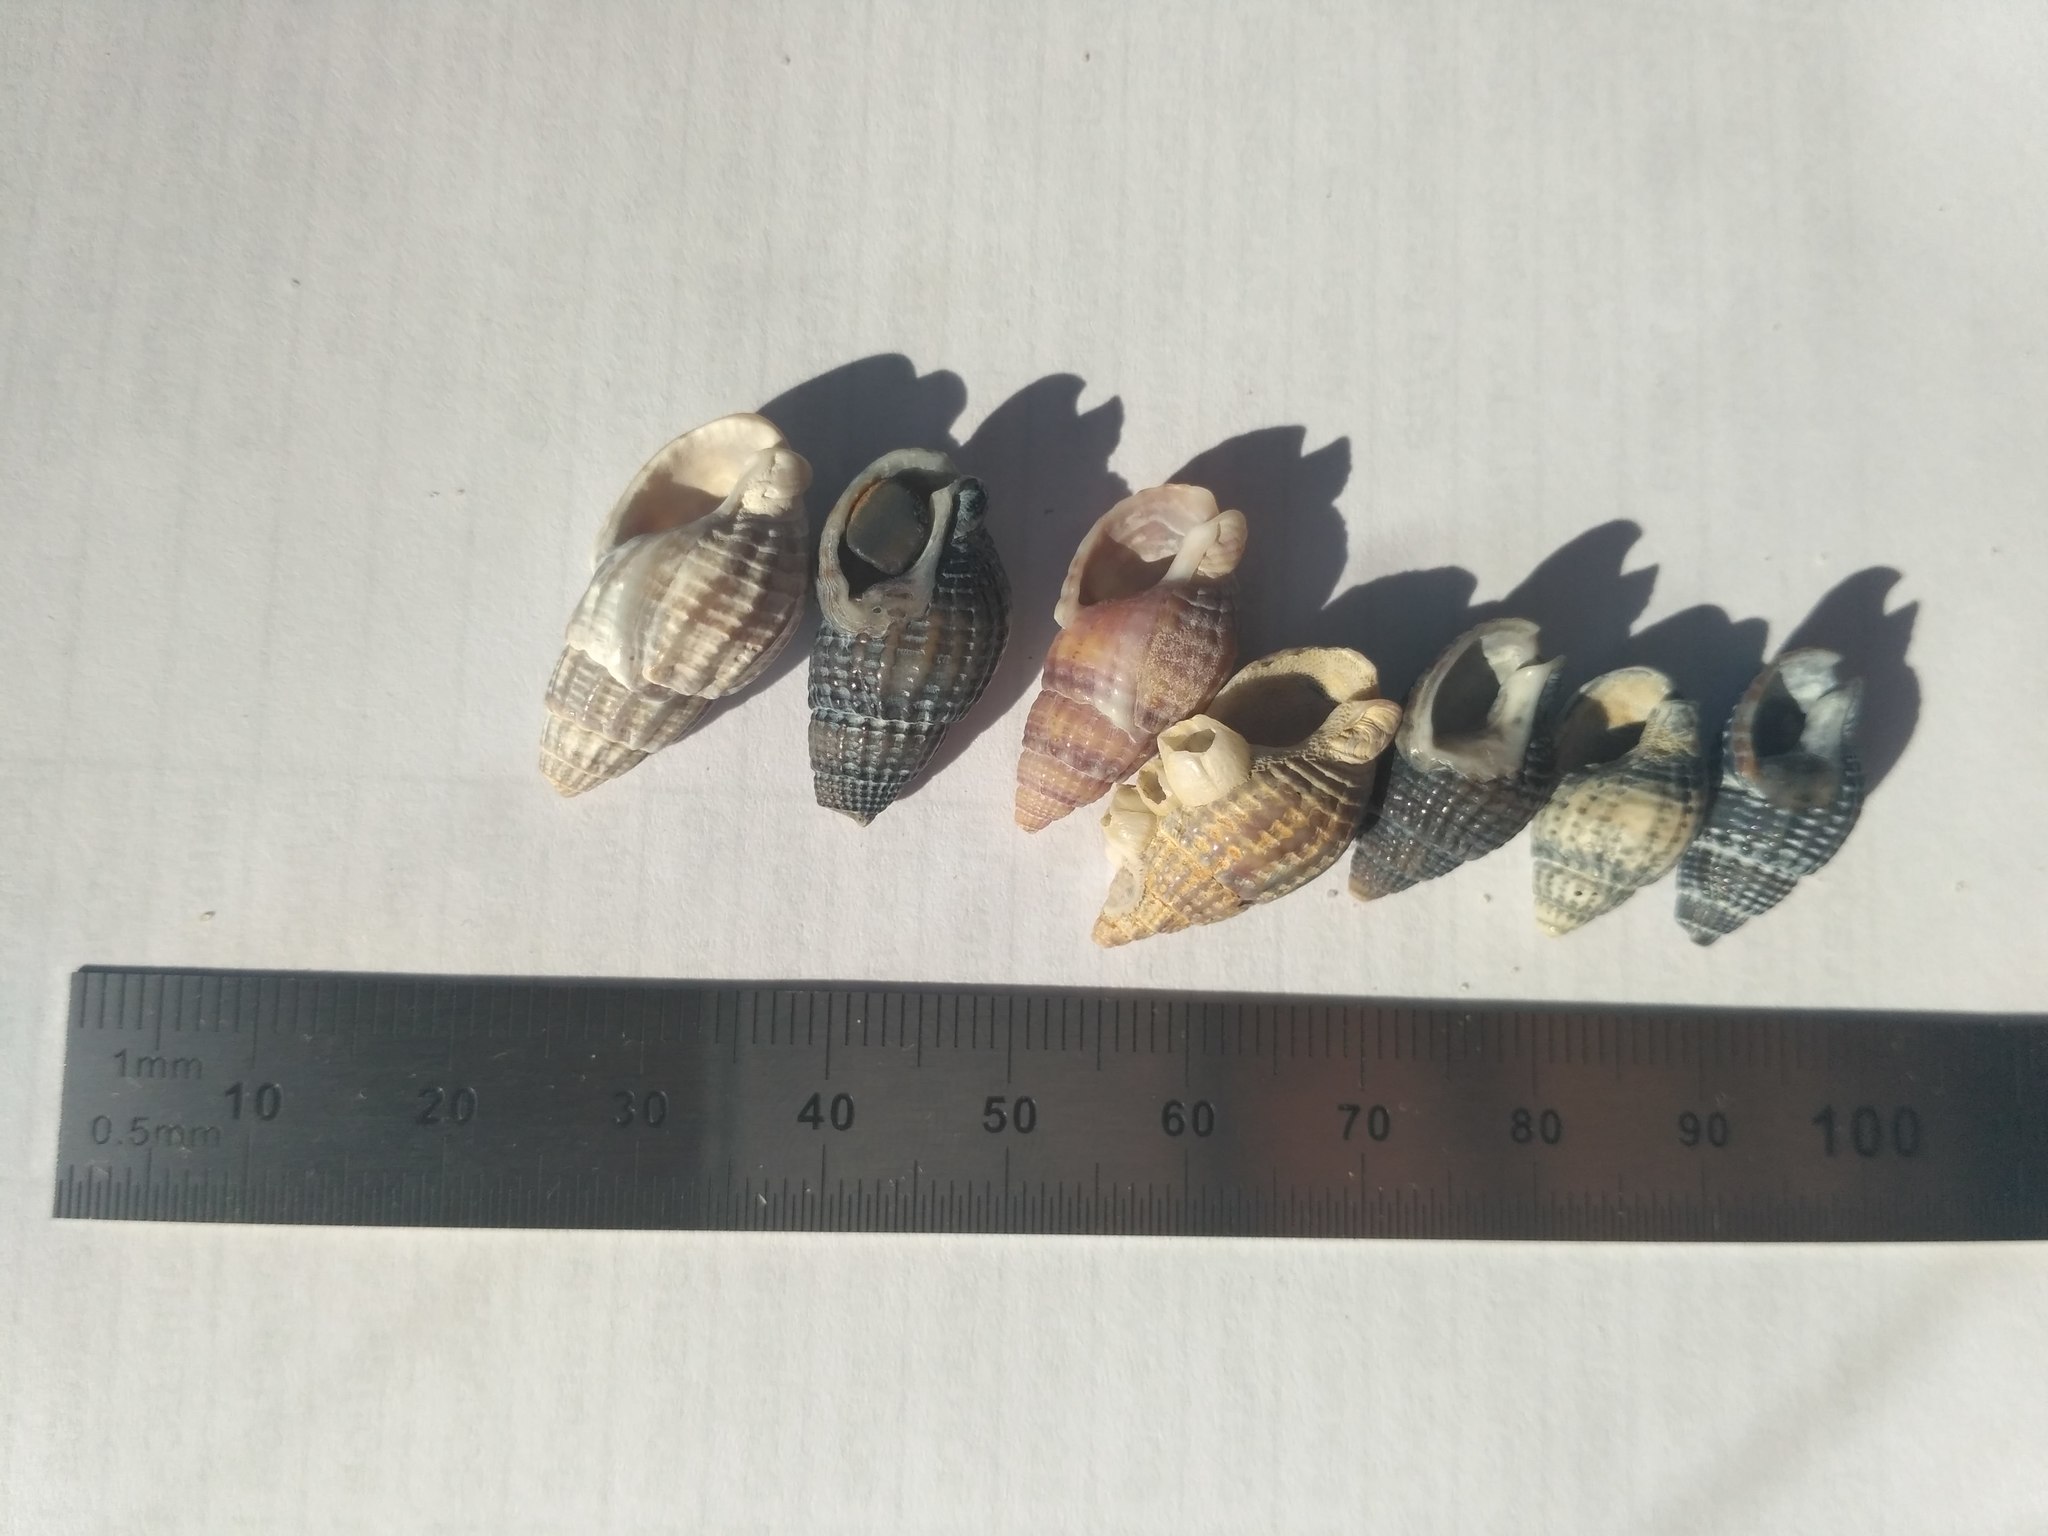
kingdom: Animalia
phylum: Mollusca
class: Gastropoda
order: Neogastropoda
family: Nassariidae
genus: Tritia
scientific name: Tritia nitida
